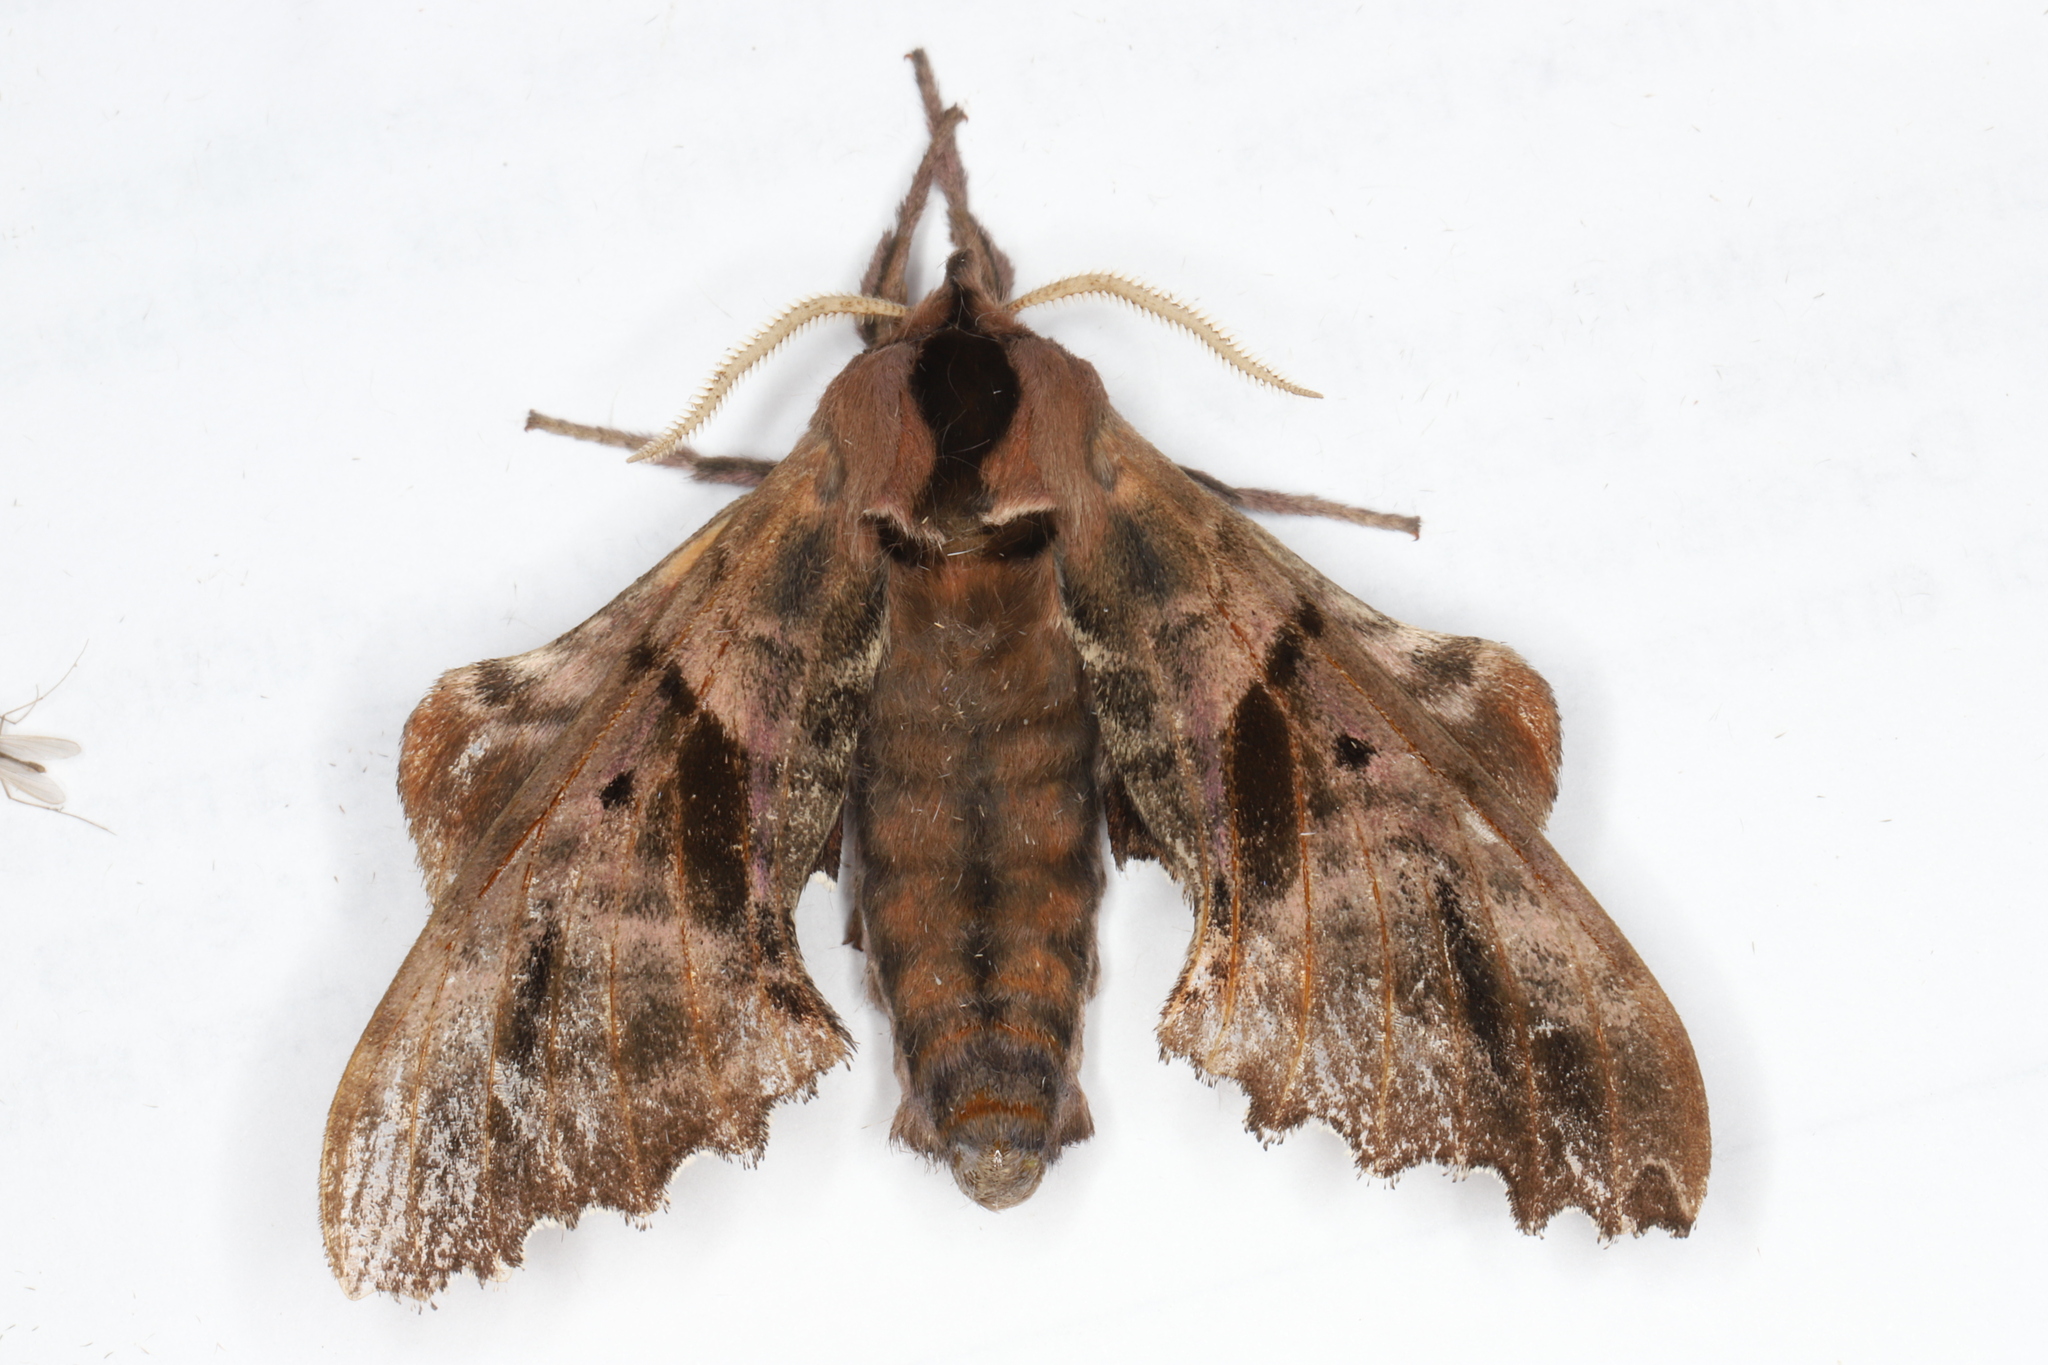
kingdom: Animalia
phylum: Arthropoda
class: Insecta
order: Lepidoptera
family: Sphingidae
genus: Paonias
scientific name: Paonias excaecata
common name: Blind-eyed sphinx
